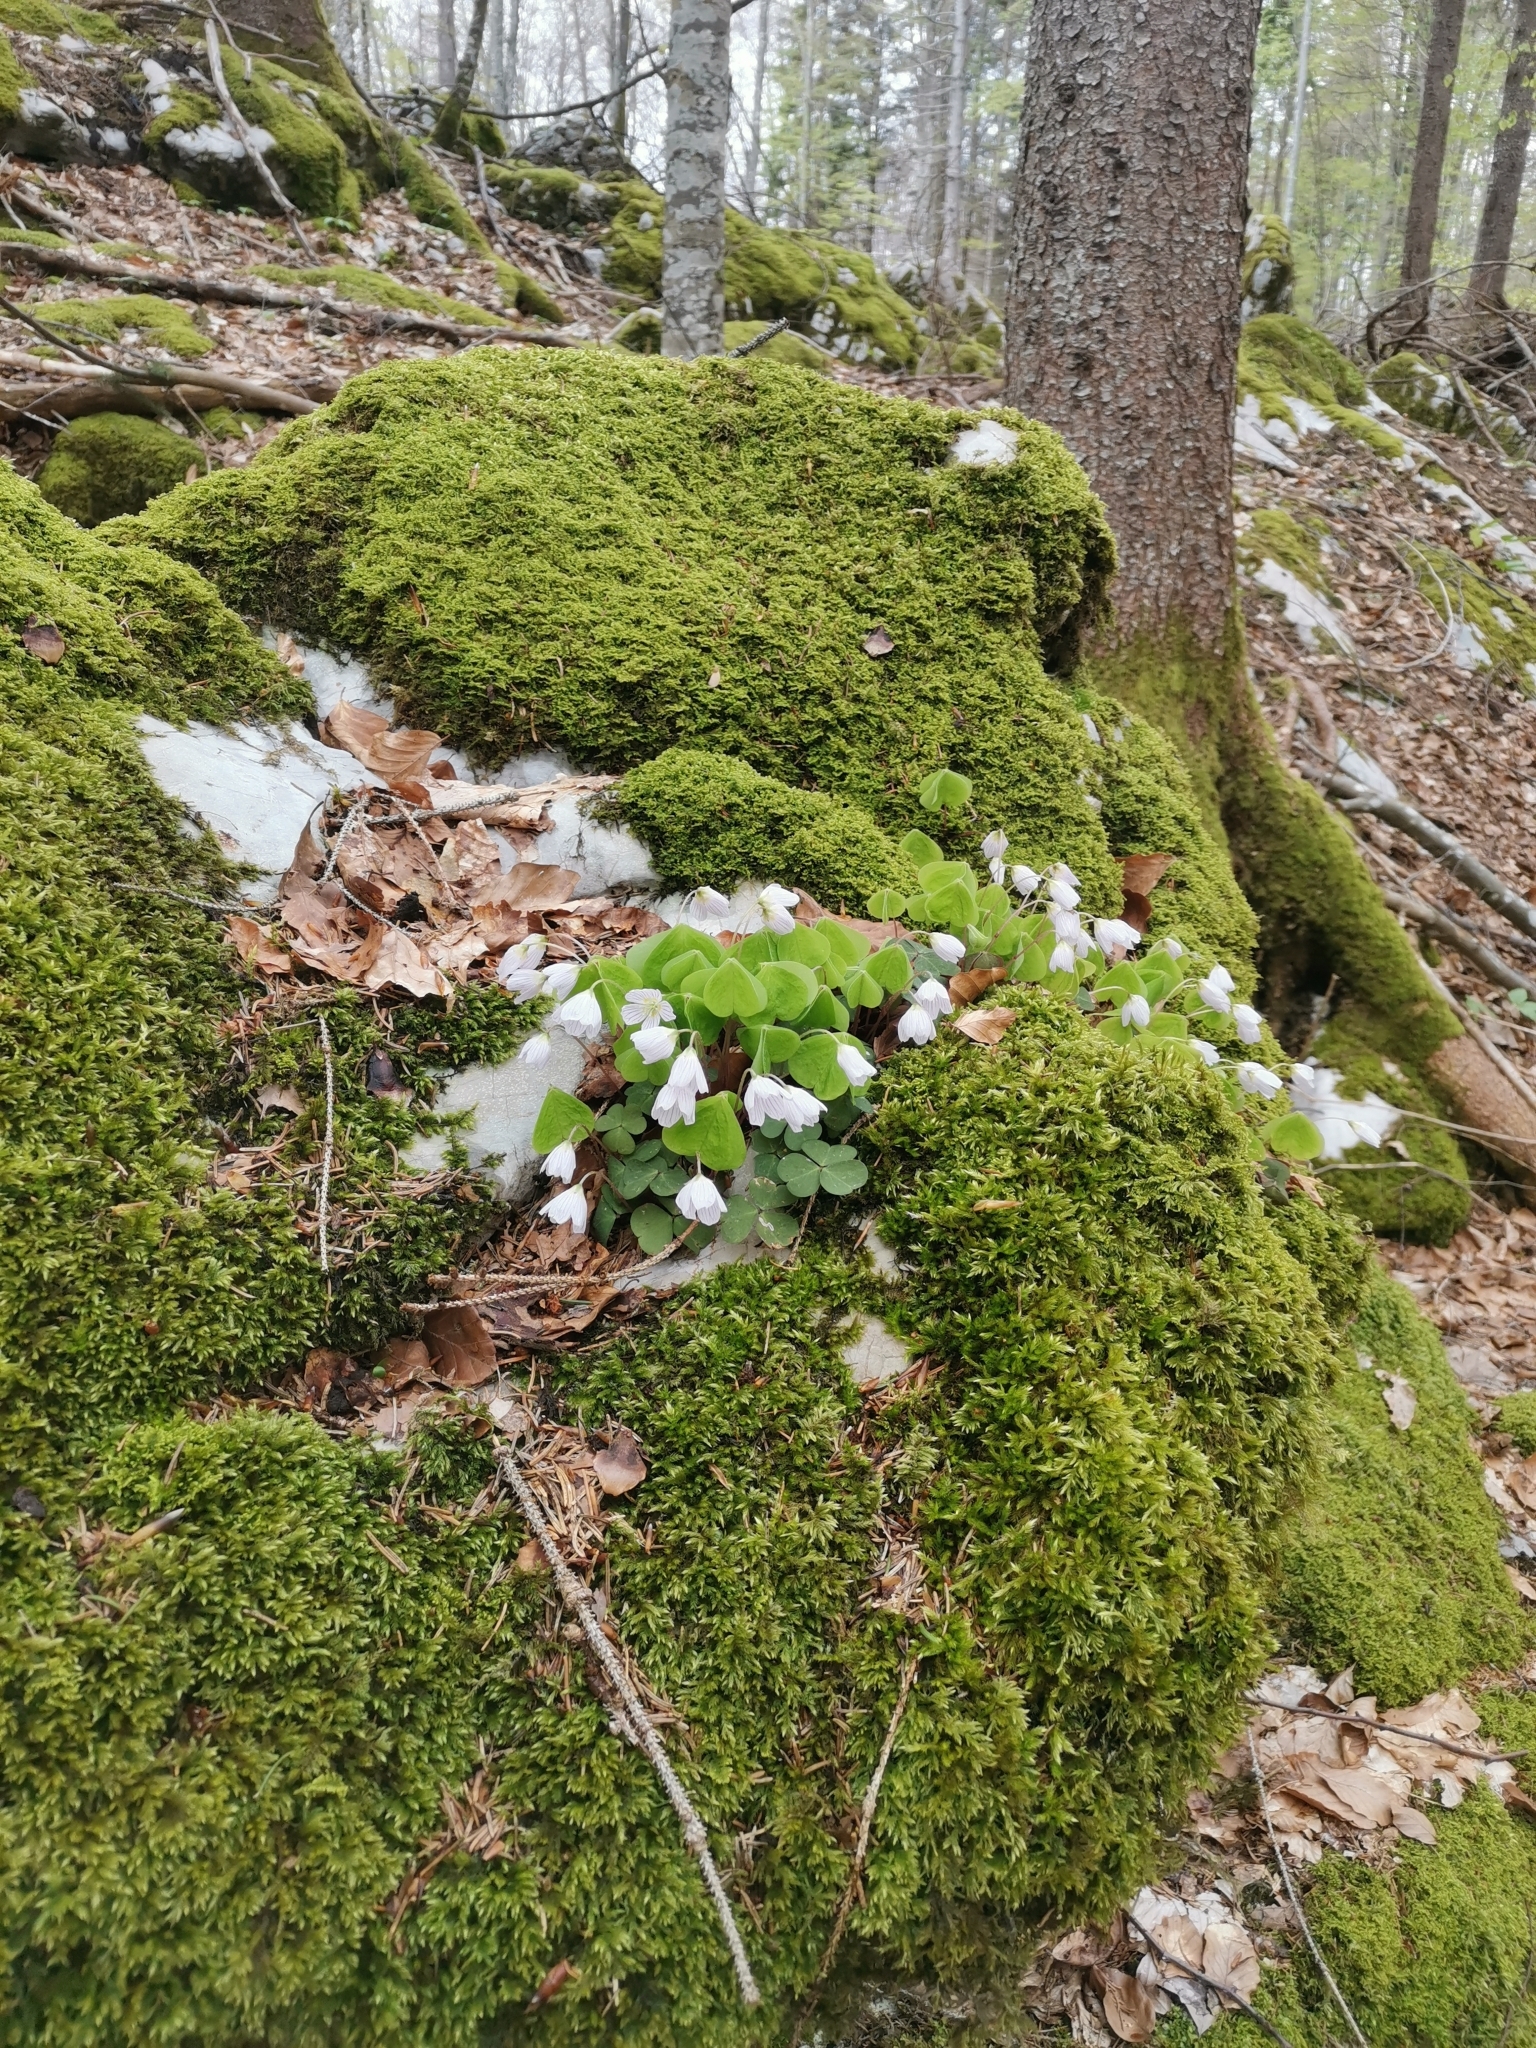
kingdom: Plantae
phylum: Tracheophyta
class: Magnoliopsida
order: Oxalidales
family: Oxalidaceae
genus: Oxalis
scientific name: Oxalis acetosella
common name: Wood-sorrel
